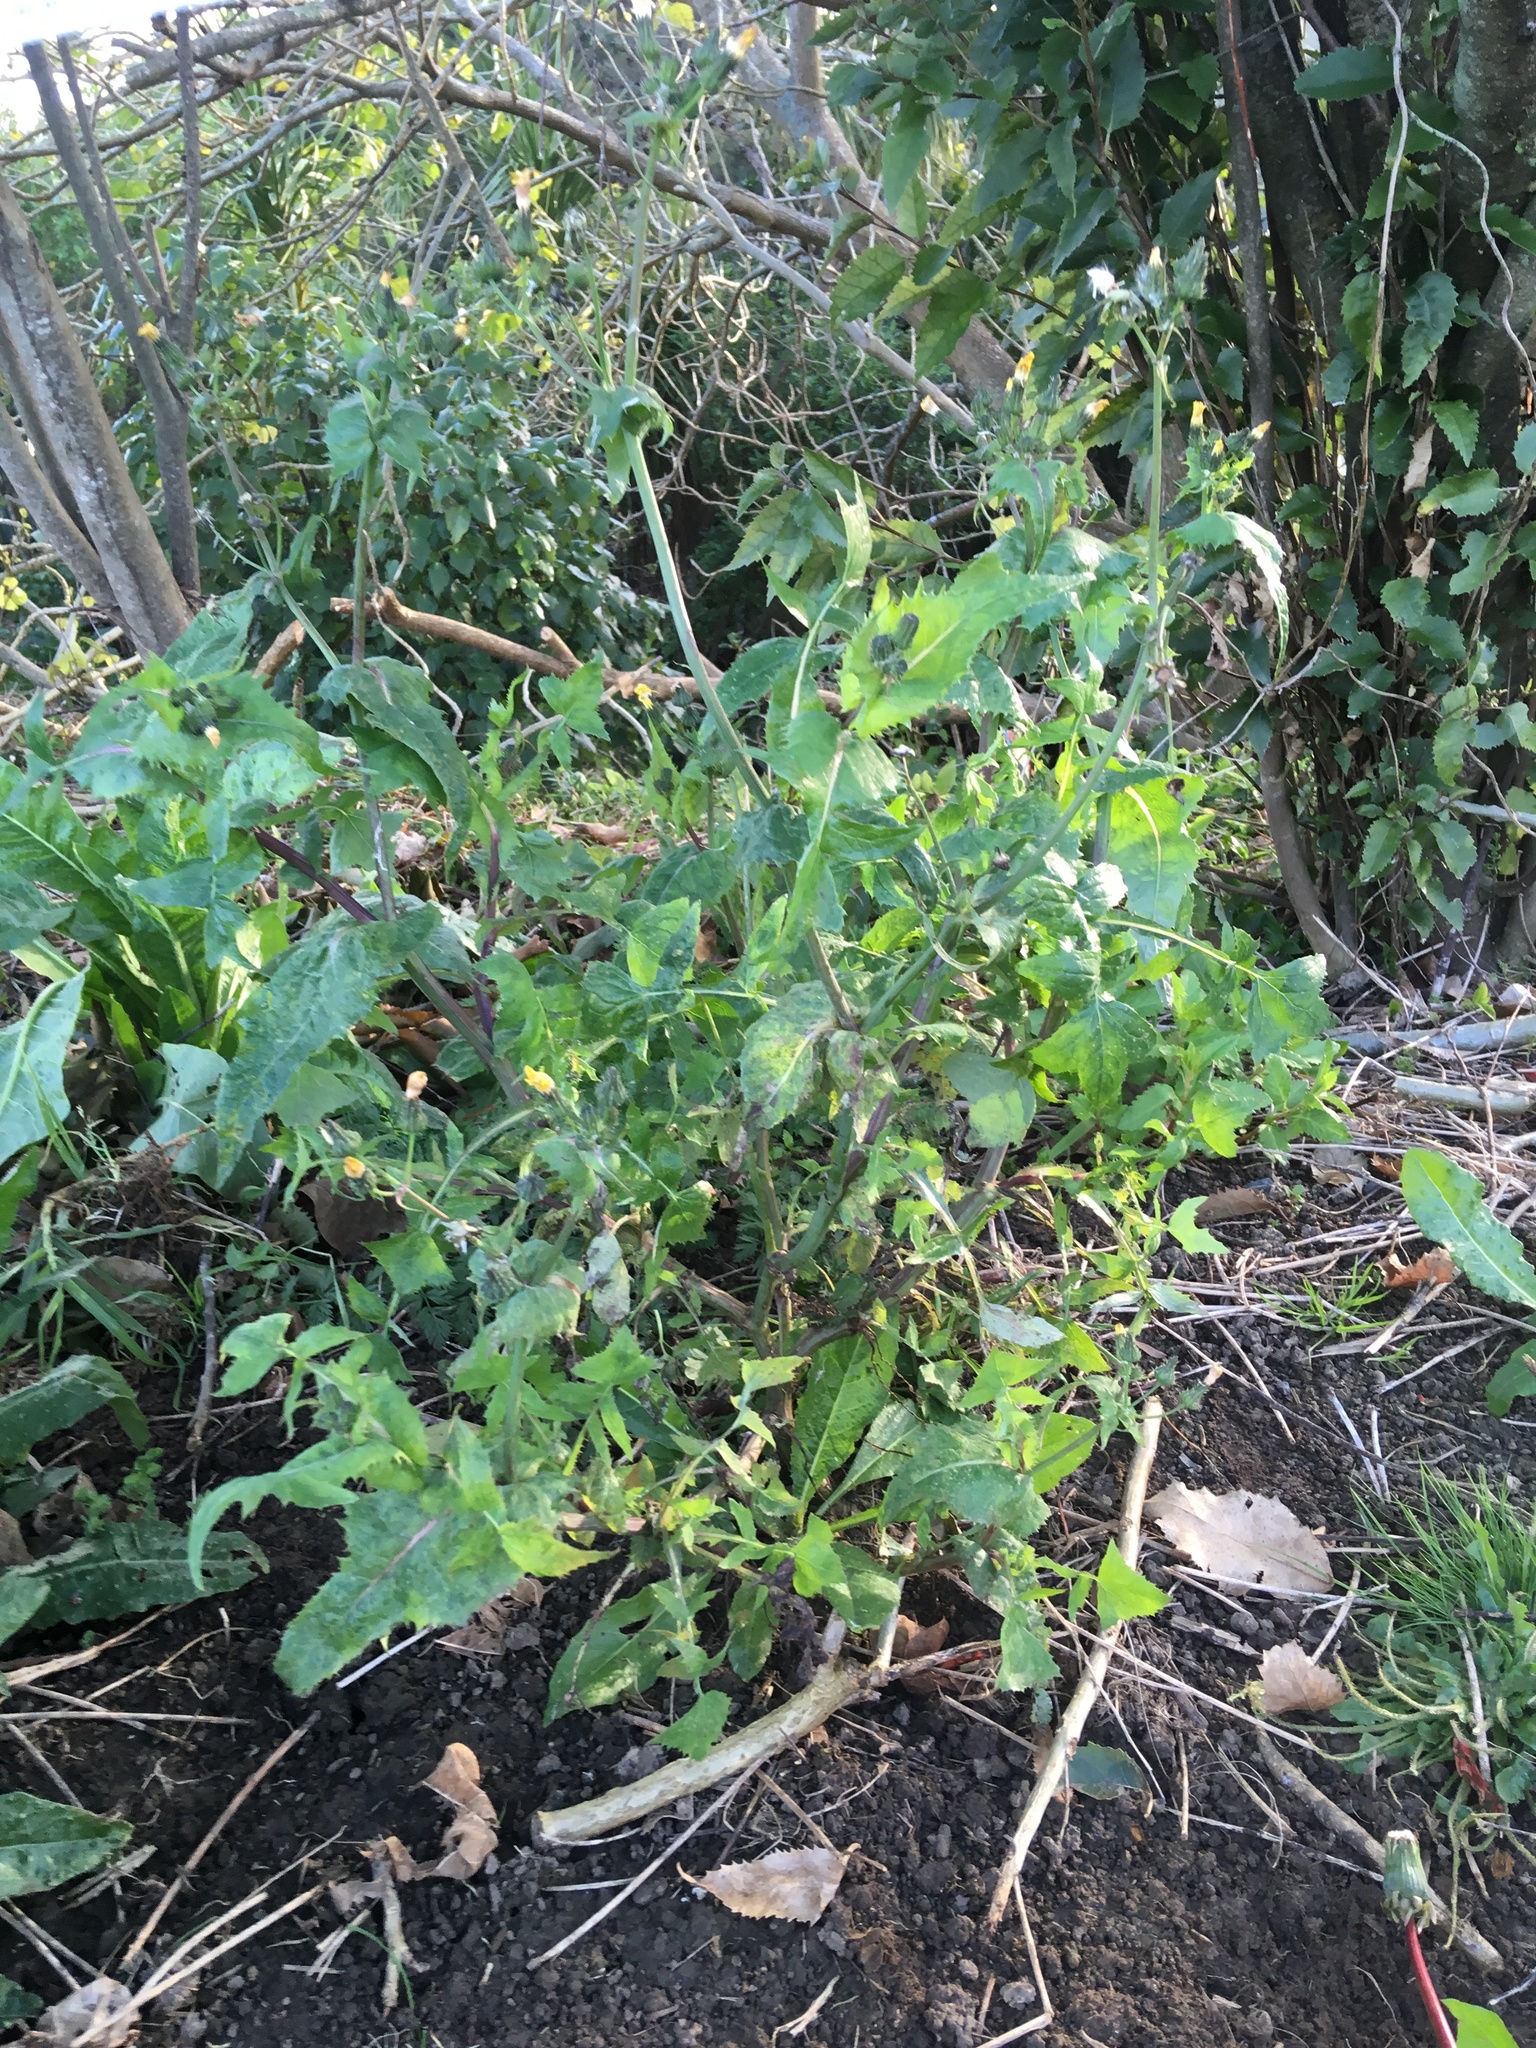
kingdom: Plantae
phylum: Tracheophyta
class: Magnoliopsida
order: Asterales
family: Asteraceae
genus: Sonchus
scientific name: Sonchus oleraceus
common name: Common sowthistle
